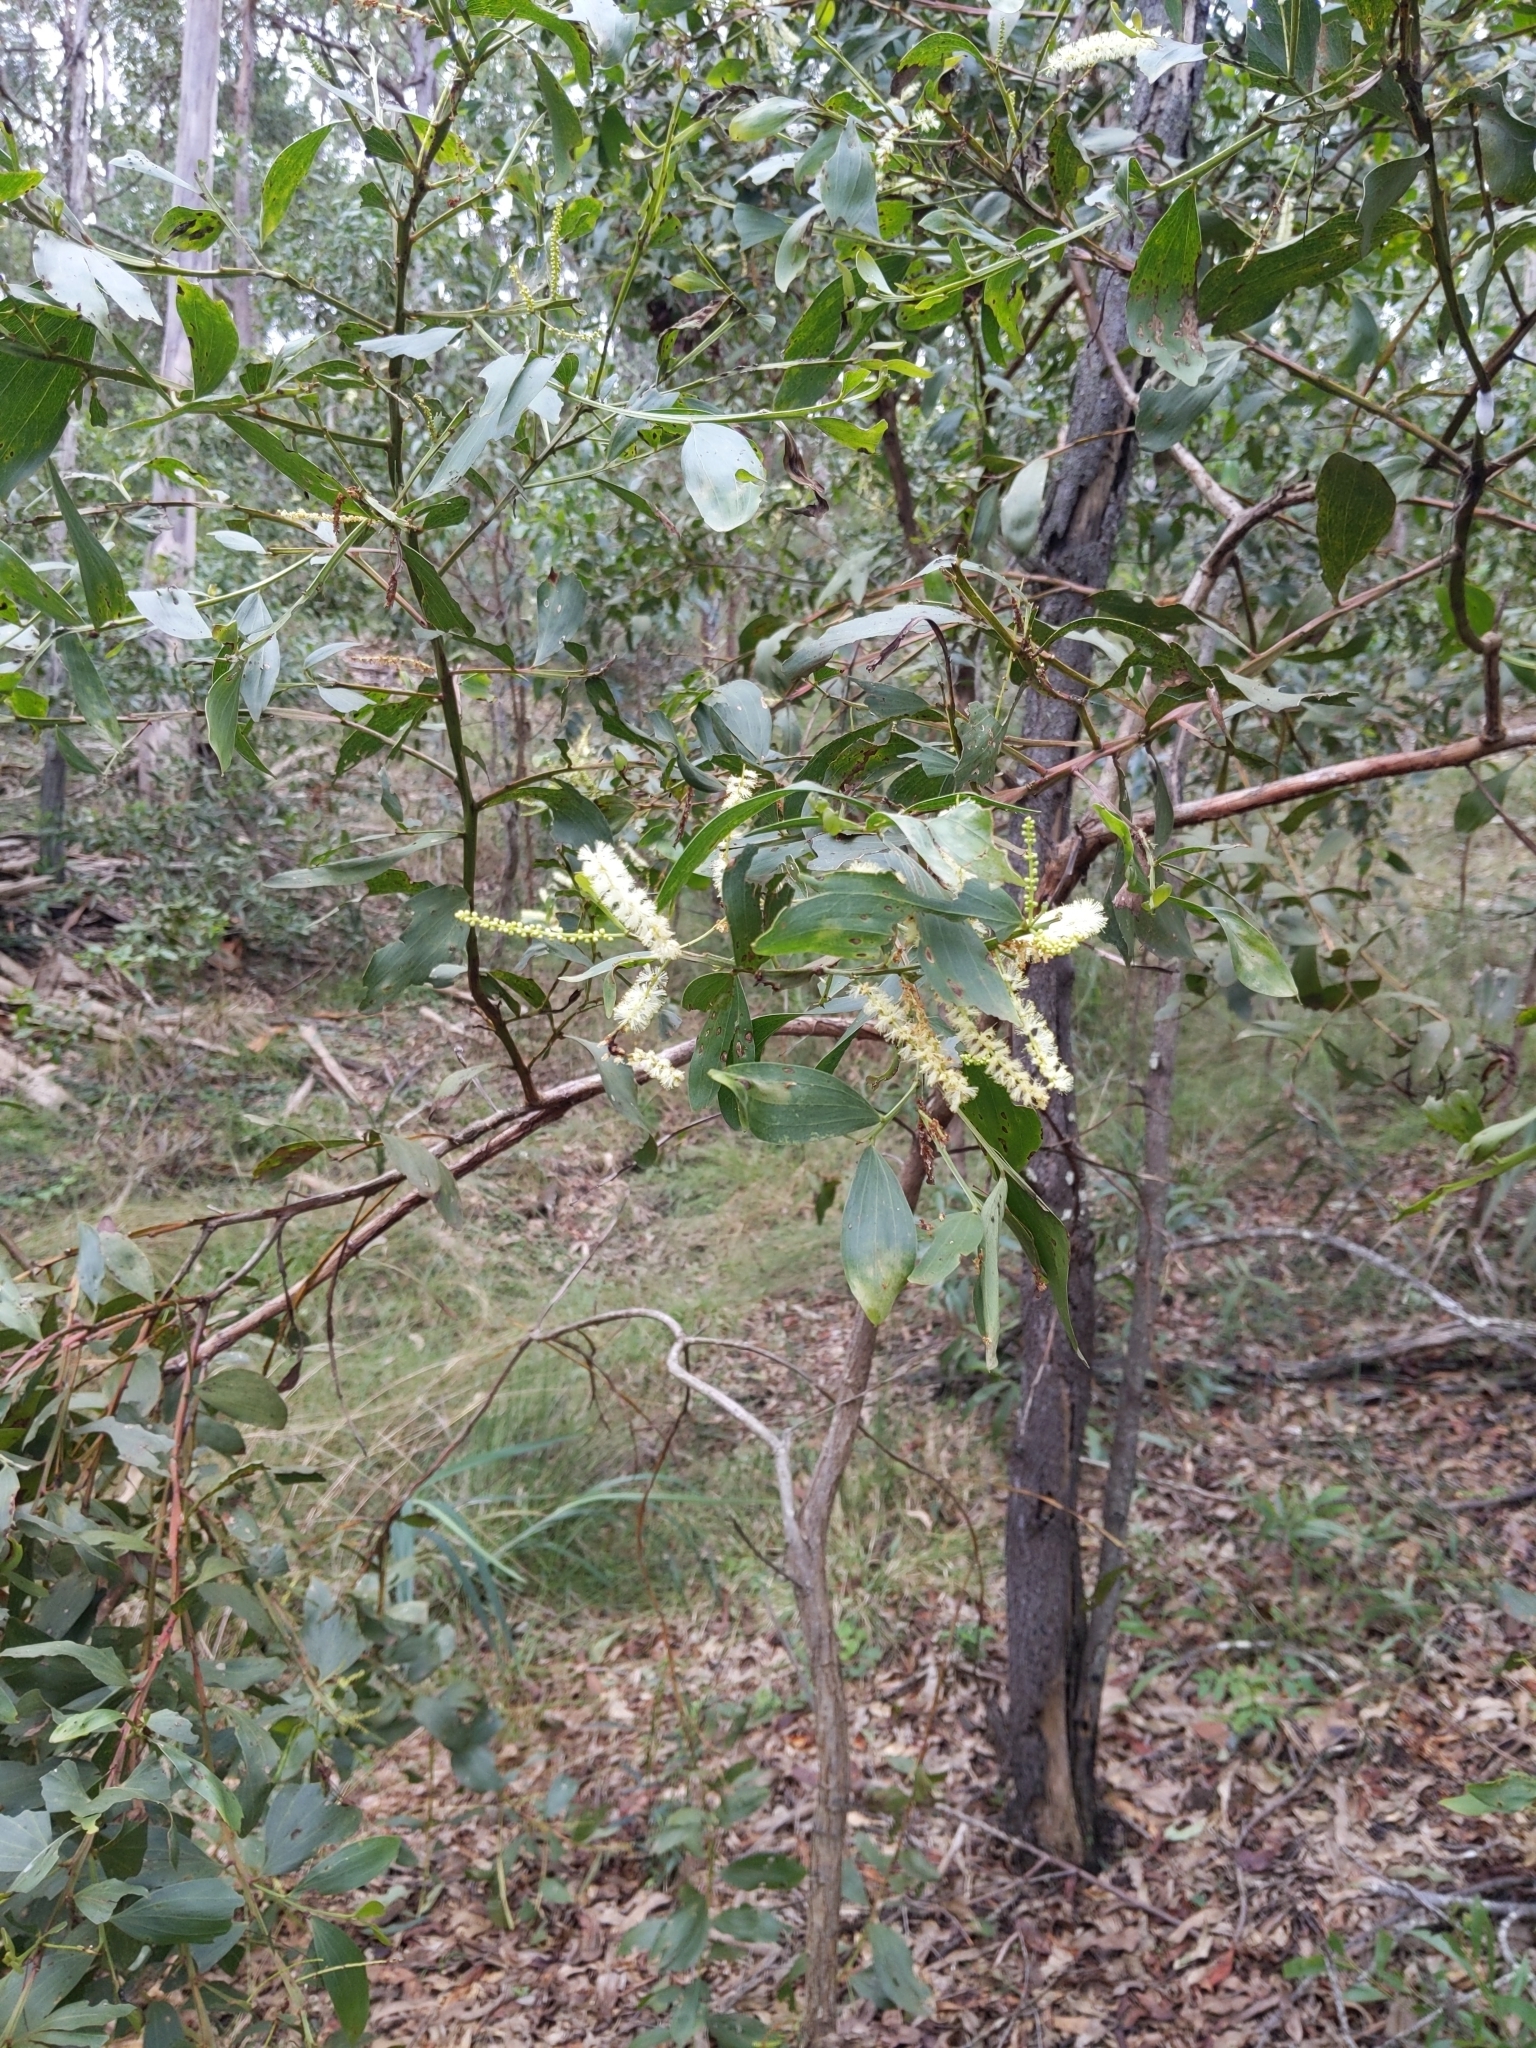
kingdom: Plantae
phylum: Tracheophyta
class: Magnoliopsida
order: Fabales
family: Fabaceae
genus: Acacia
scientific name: Acacia leiocalyx
